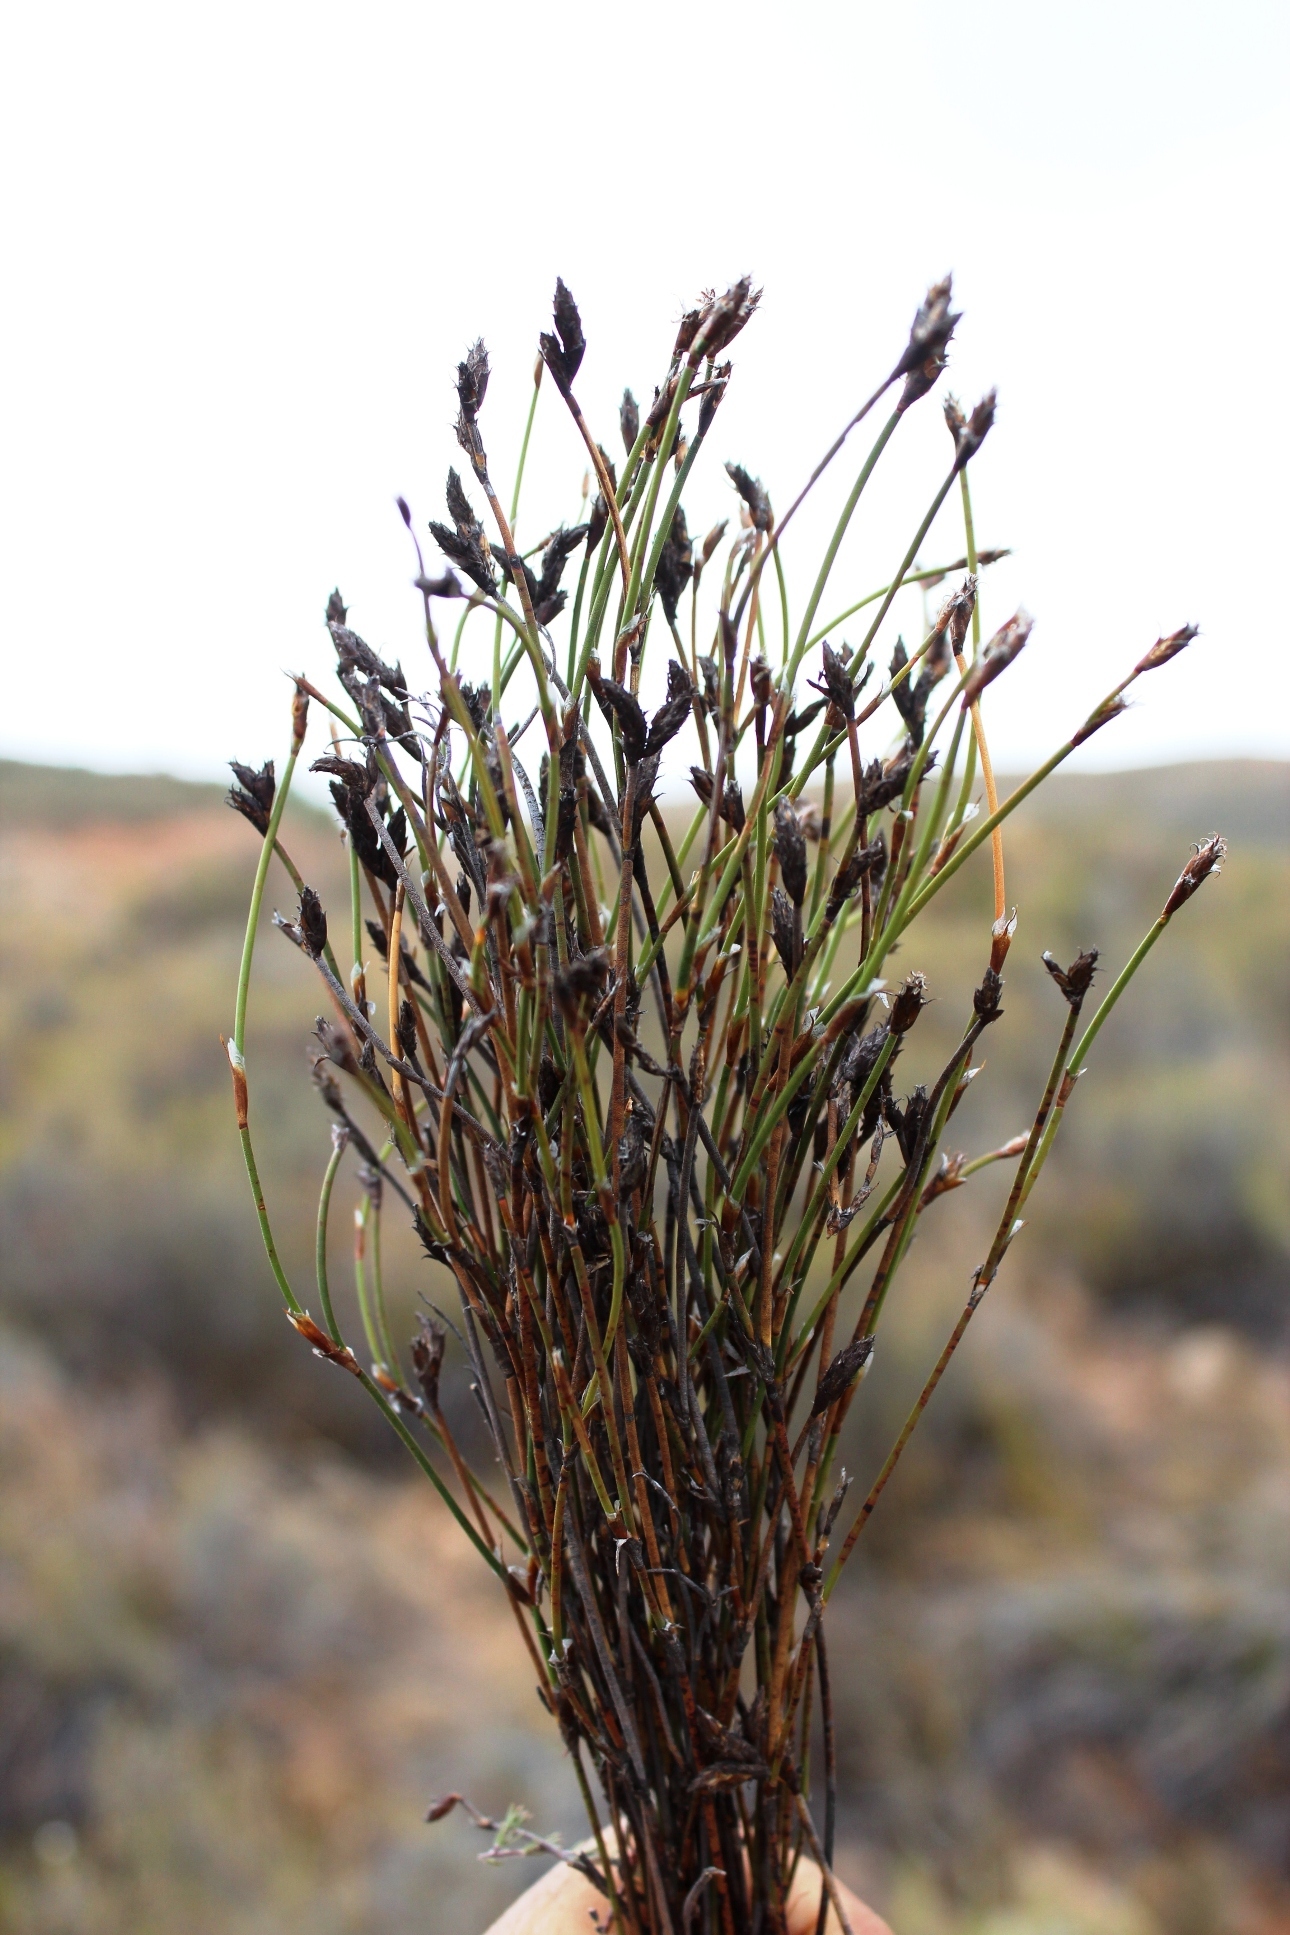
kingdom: Plantae
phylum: Tracheophyta
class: Liliopsida
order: Poales
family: Restionaceae
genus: Restio
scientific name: Restio capensis
